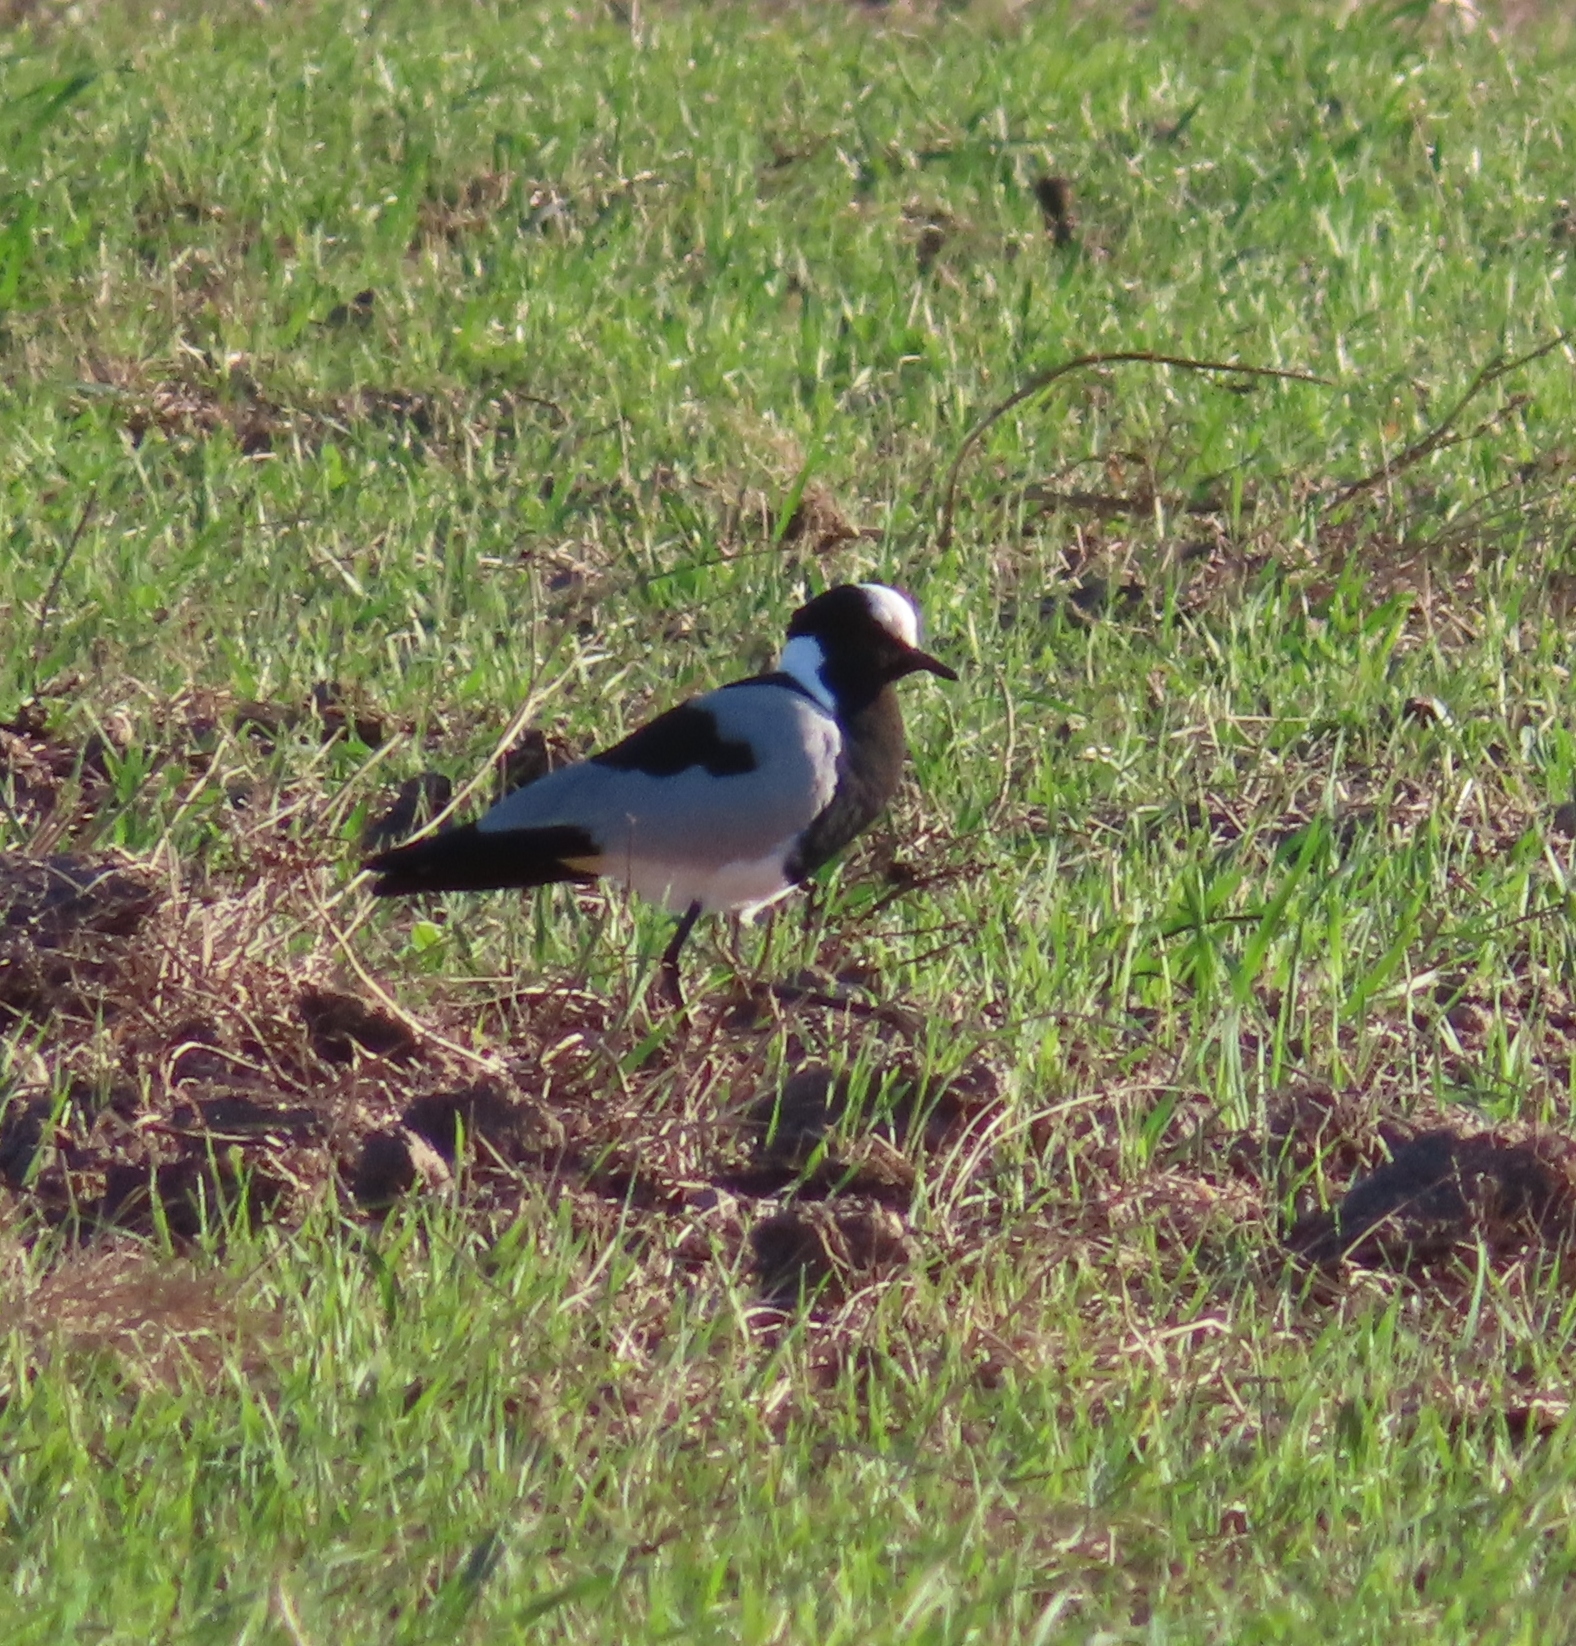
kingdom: Animalia
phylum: Chordata
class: Aves
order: Charadriiformes
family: Charadriidae
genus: Vanellus
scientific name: Vanellus armatus
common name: Blacksmith lapwing
